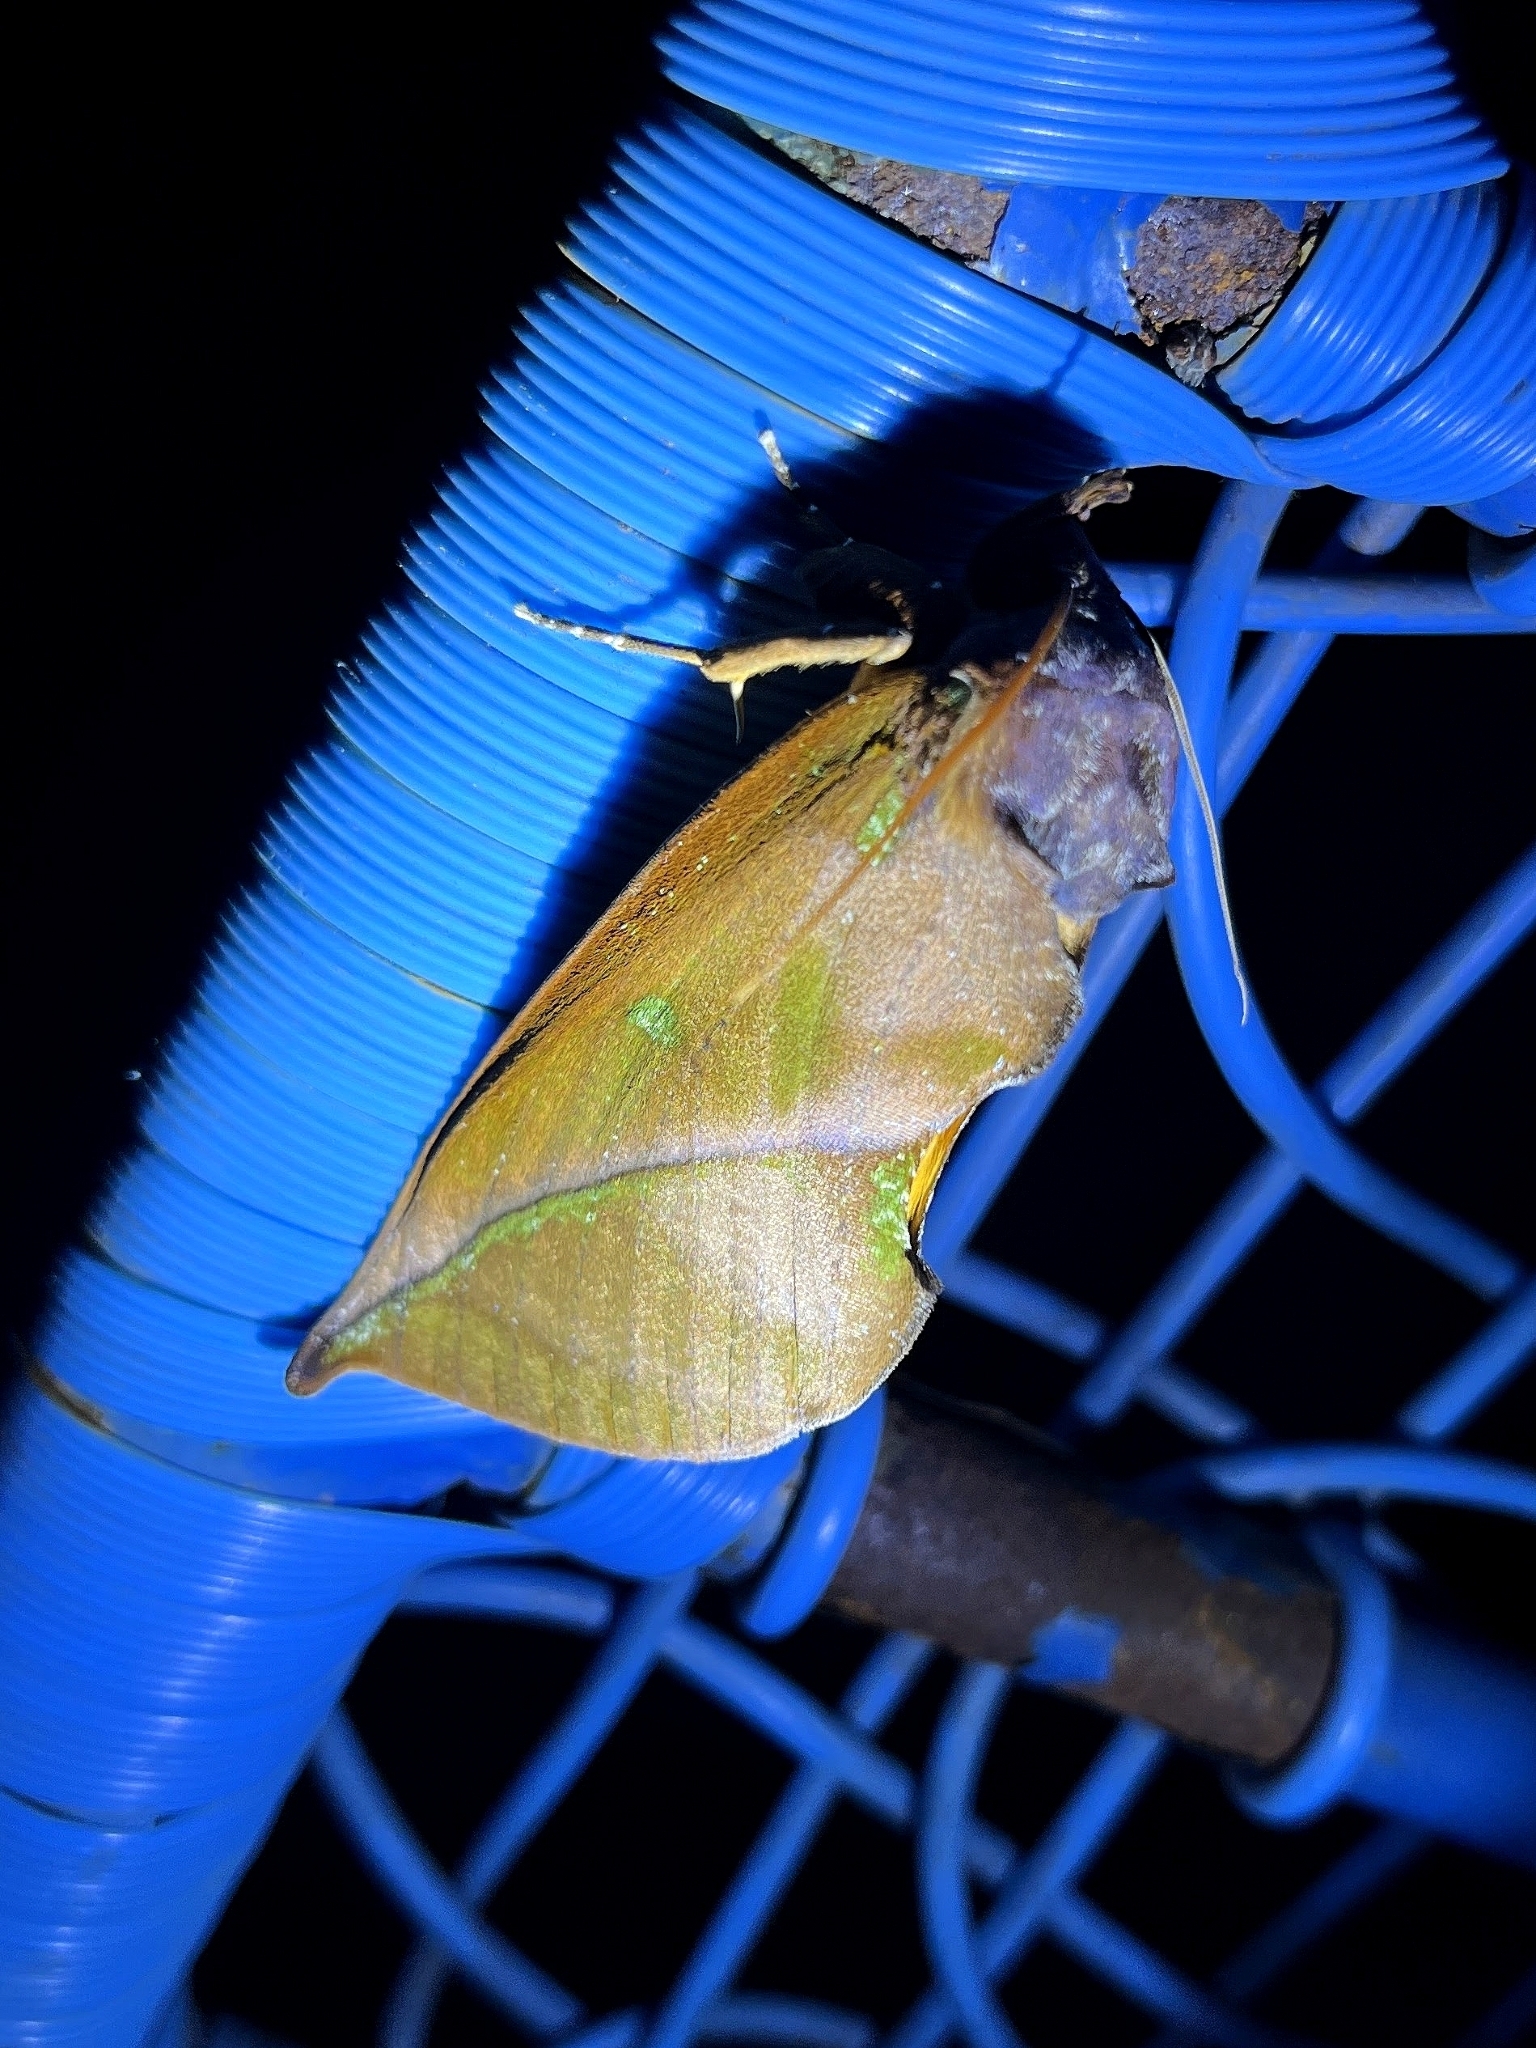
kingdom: Animalia
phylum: Arthropoda
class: Insecta
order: Lepidoptera
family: Erebidae
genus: Eudocima
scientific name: Eudocima aurantia
